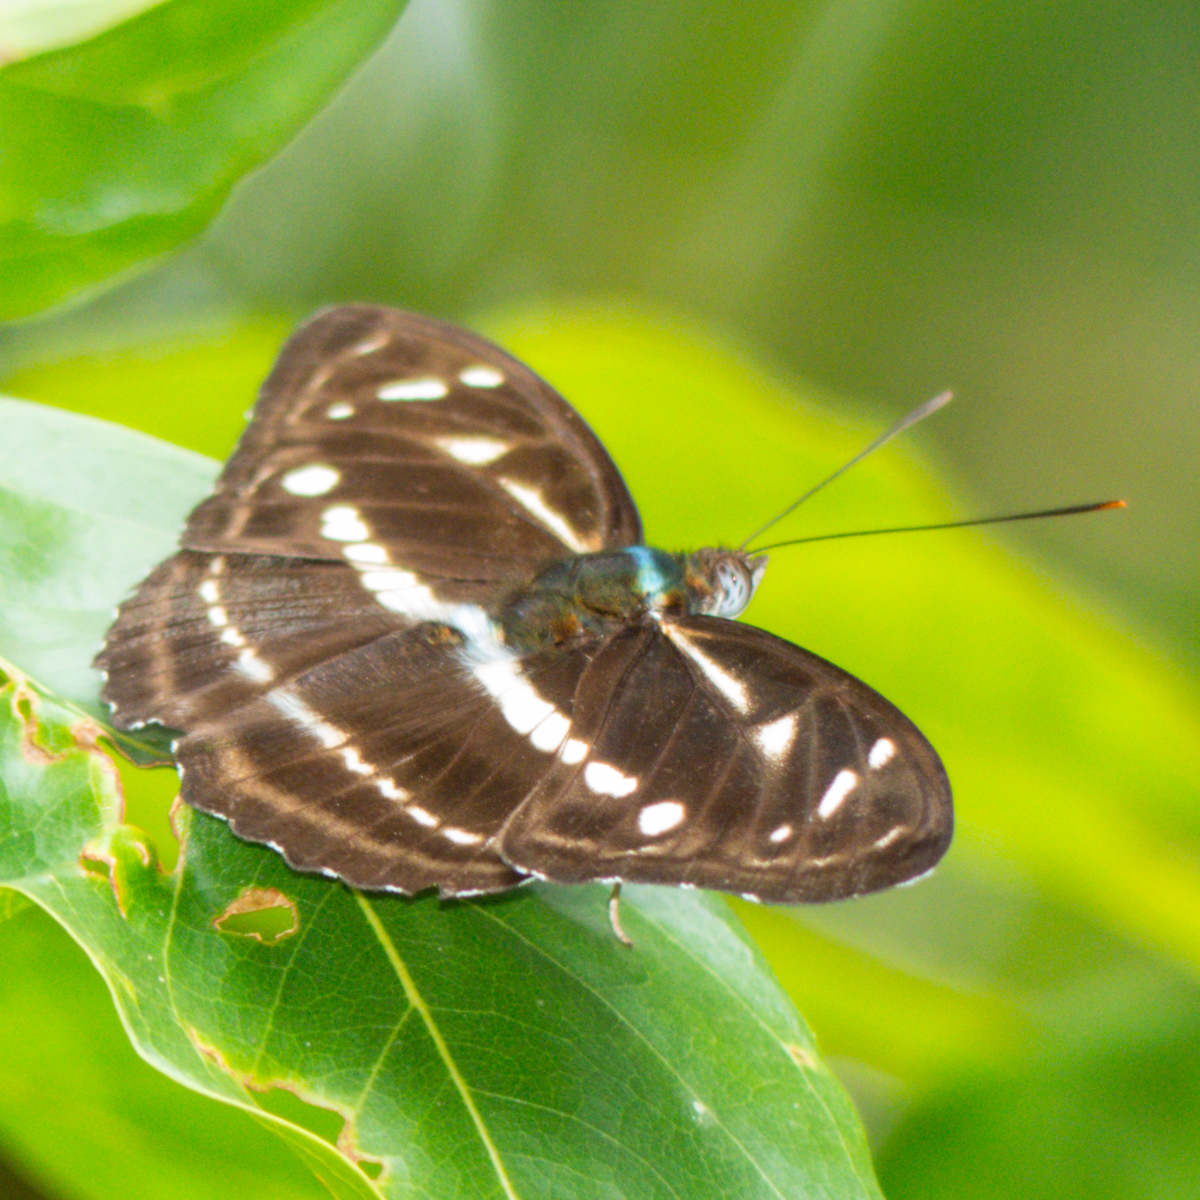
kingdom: Animalia
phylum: Arthropoda
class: Insecta
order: Lepidoptera
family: Nymphalidae
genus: Parathyma
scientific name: Parathyma kanwa
